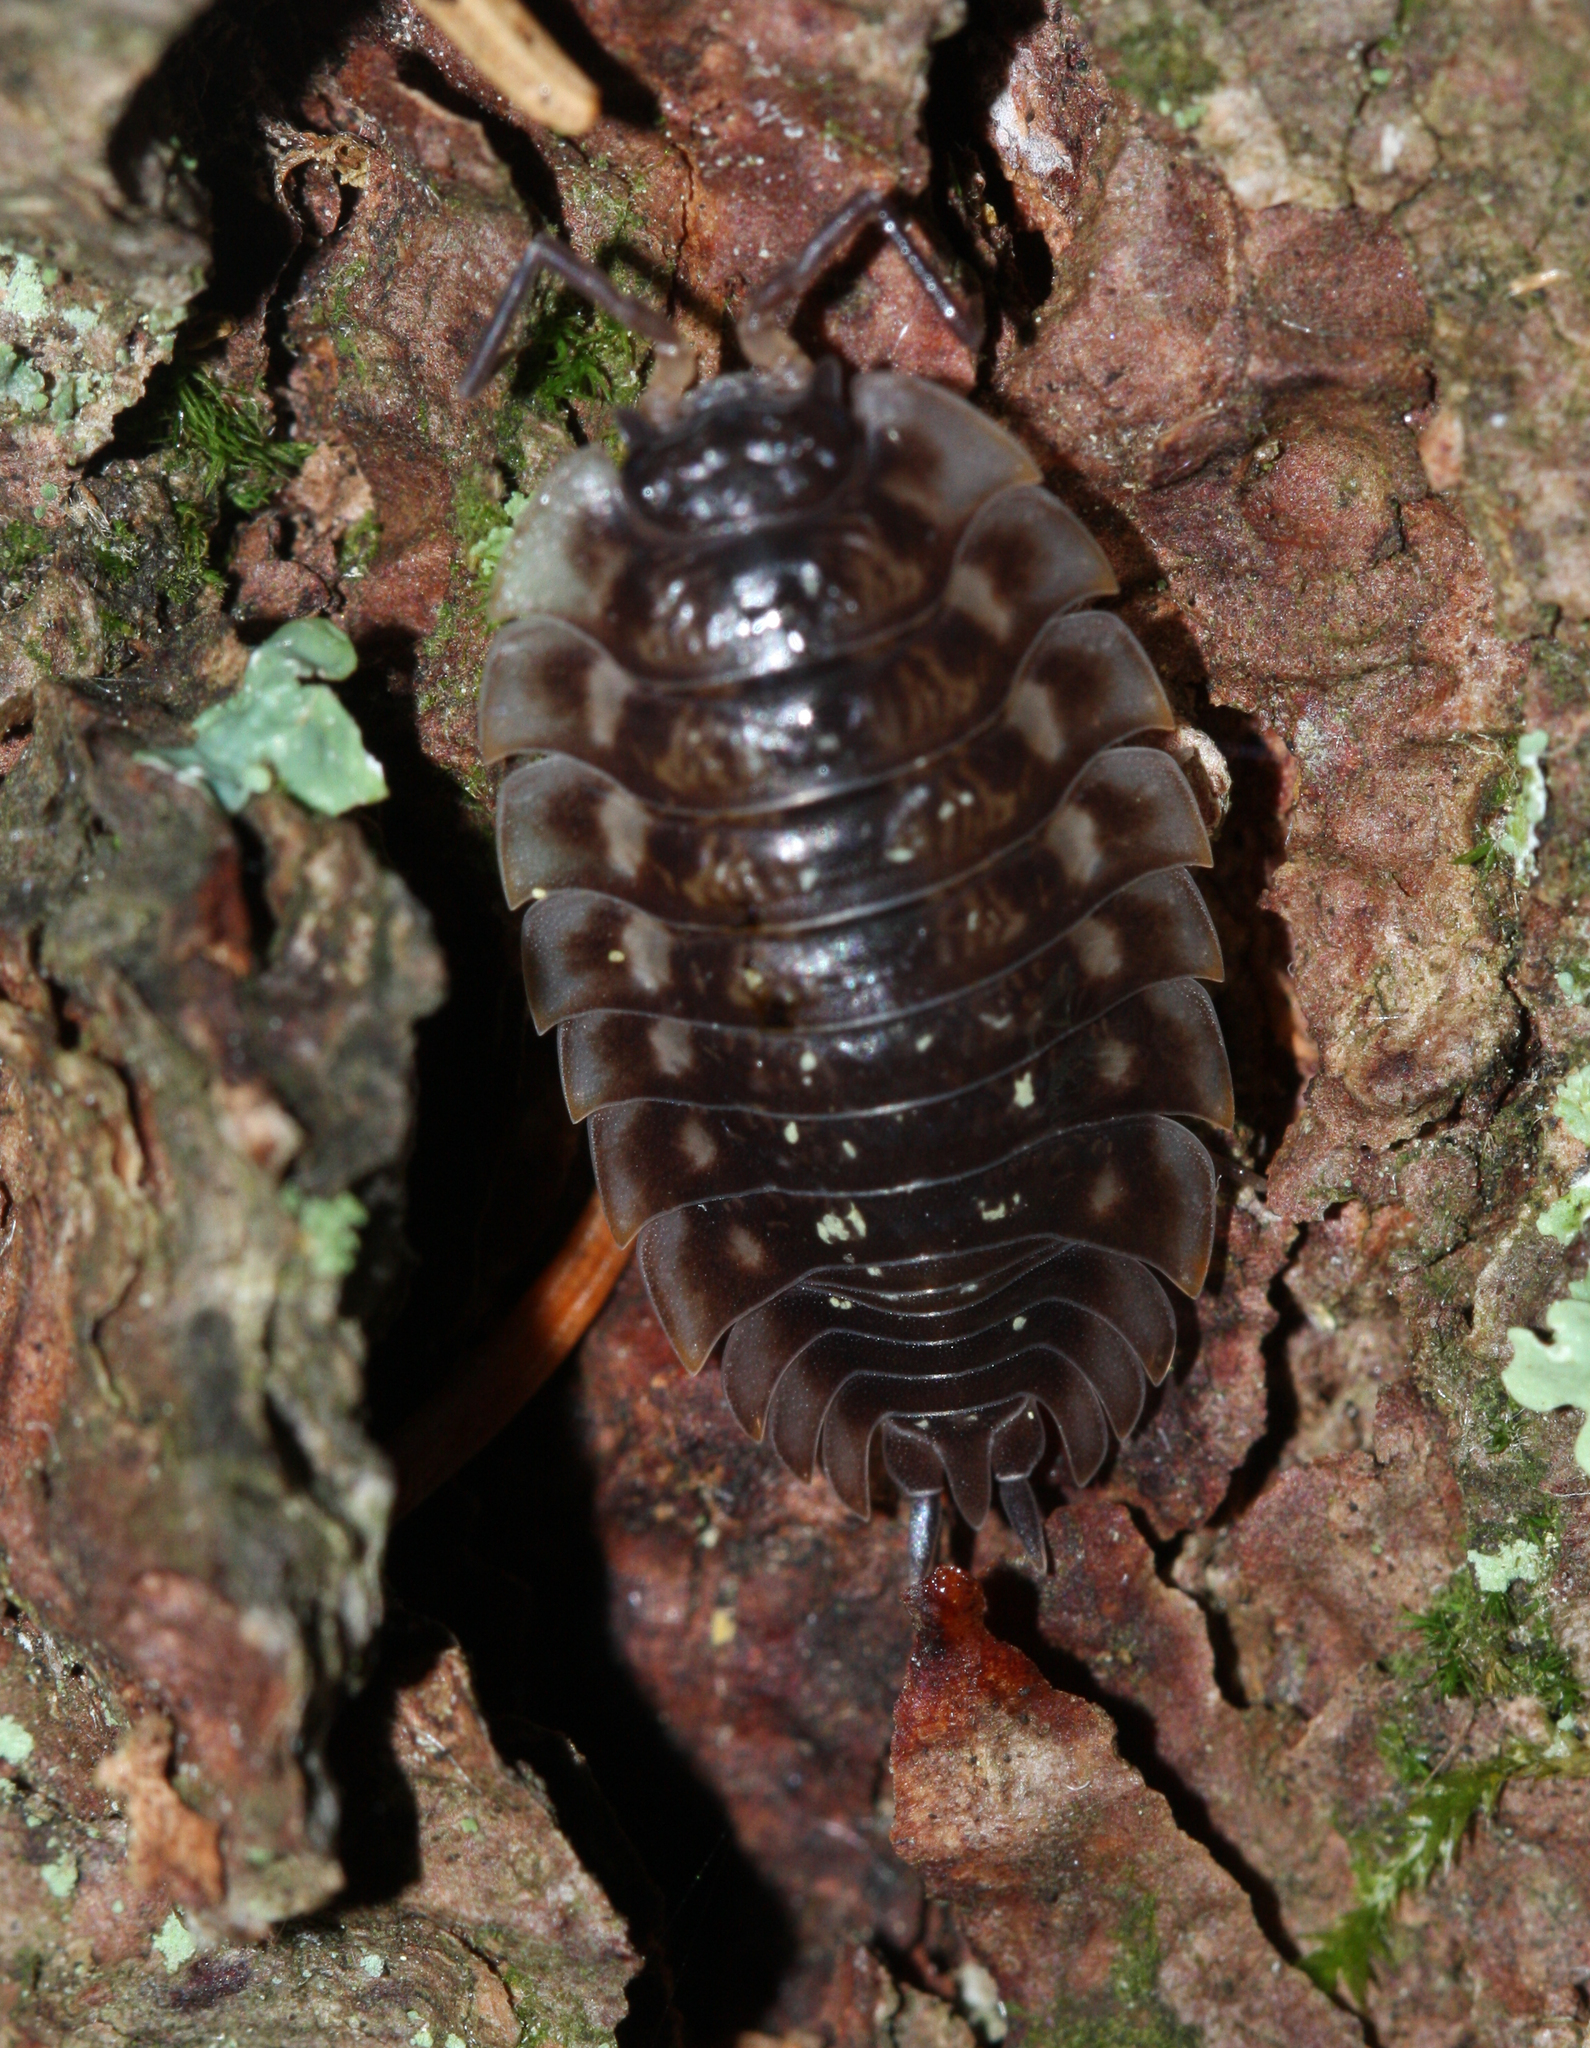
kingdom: Animalia
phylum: Arthropoda
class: Malacostraca
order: Isopoda
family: Oniscidae
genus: Oniscus
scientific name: Oniscus asellus
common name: Common shiny woodlouse
